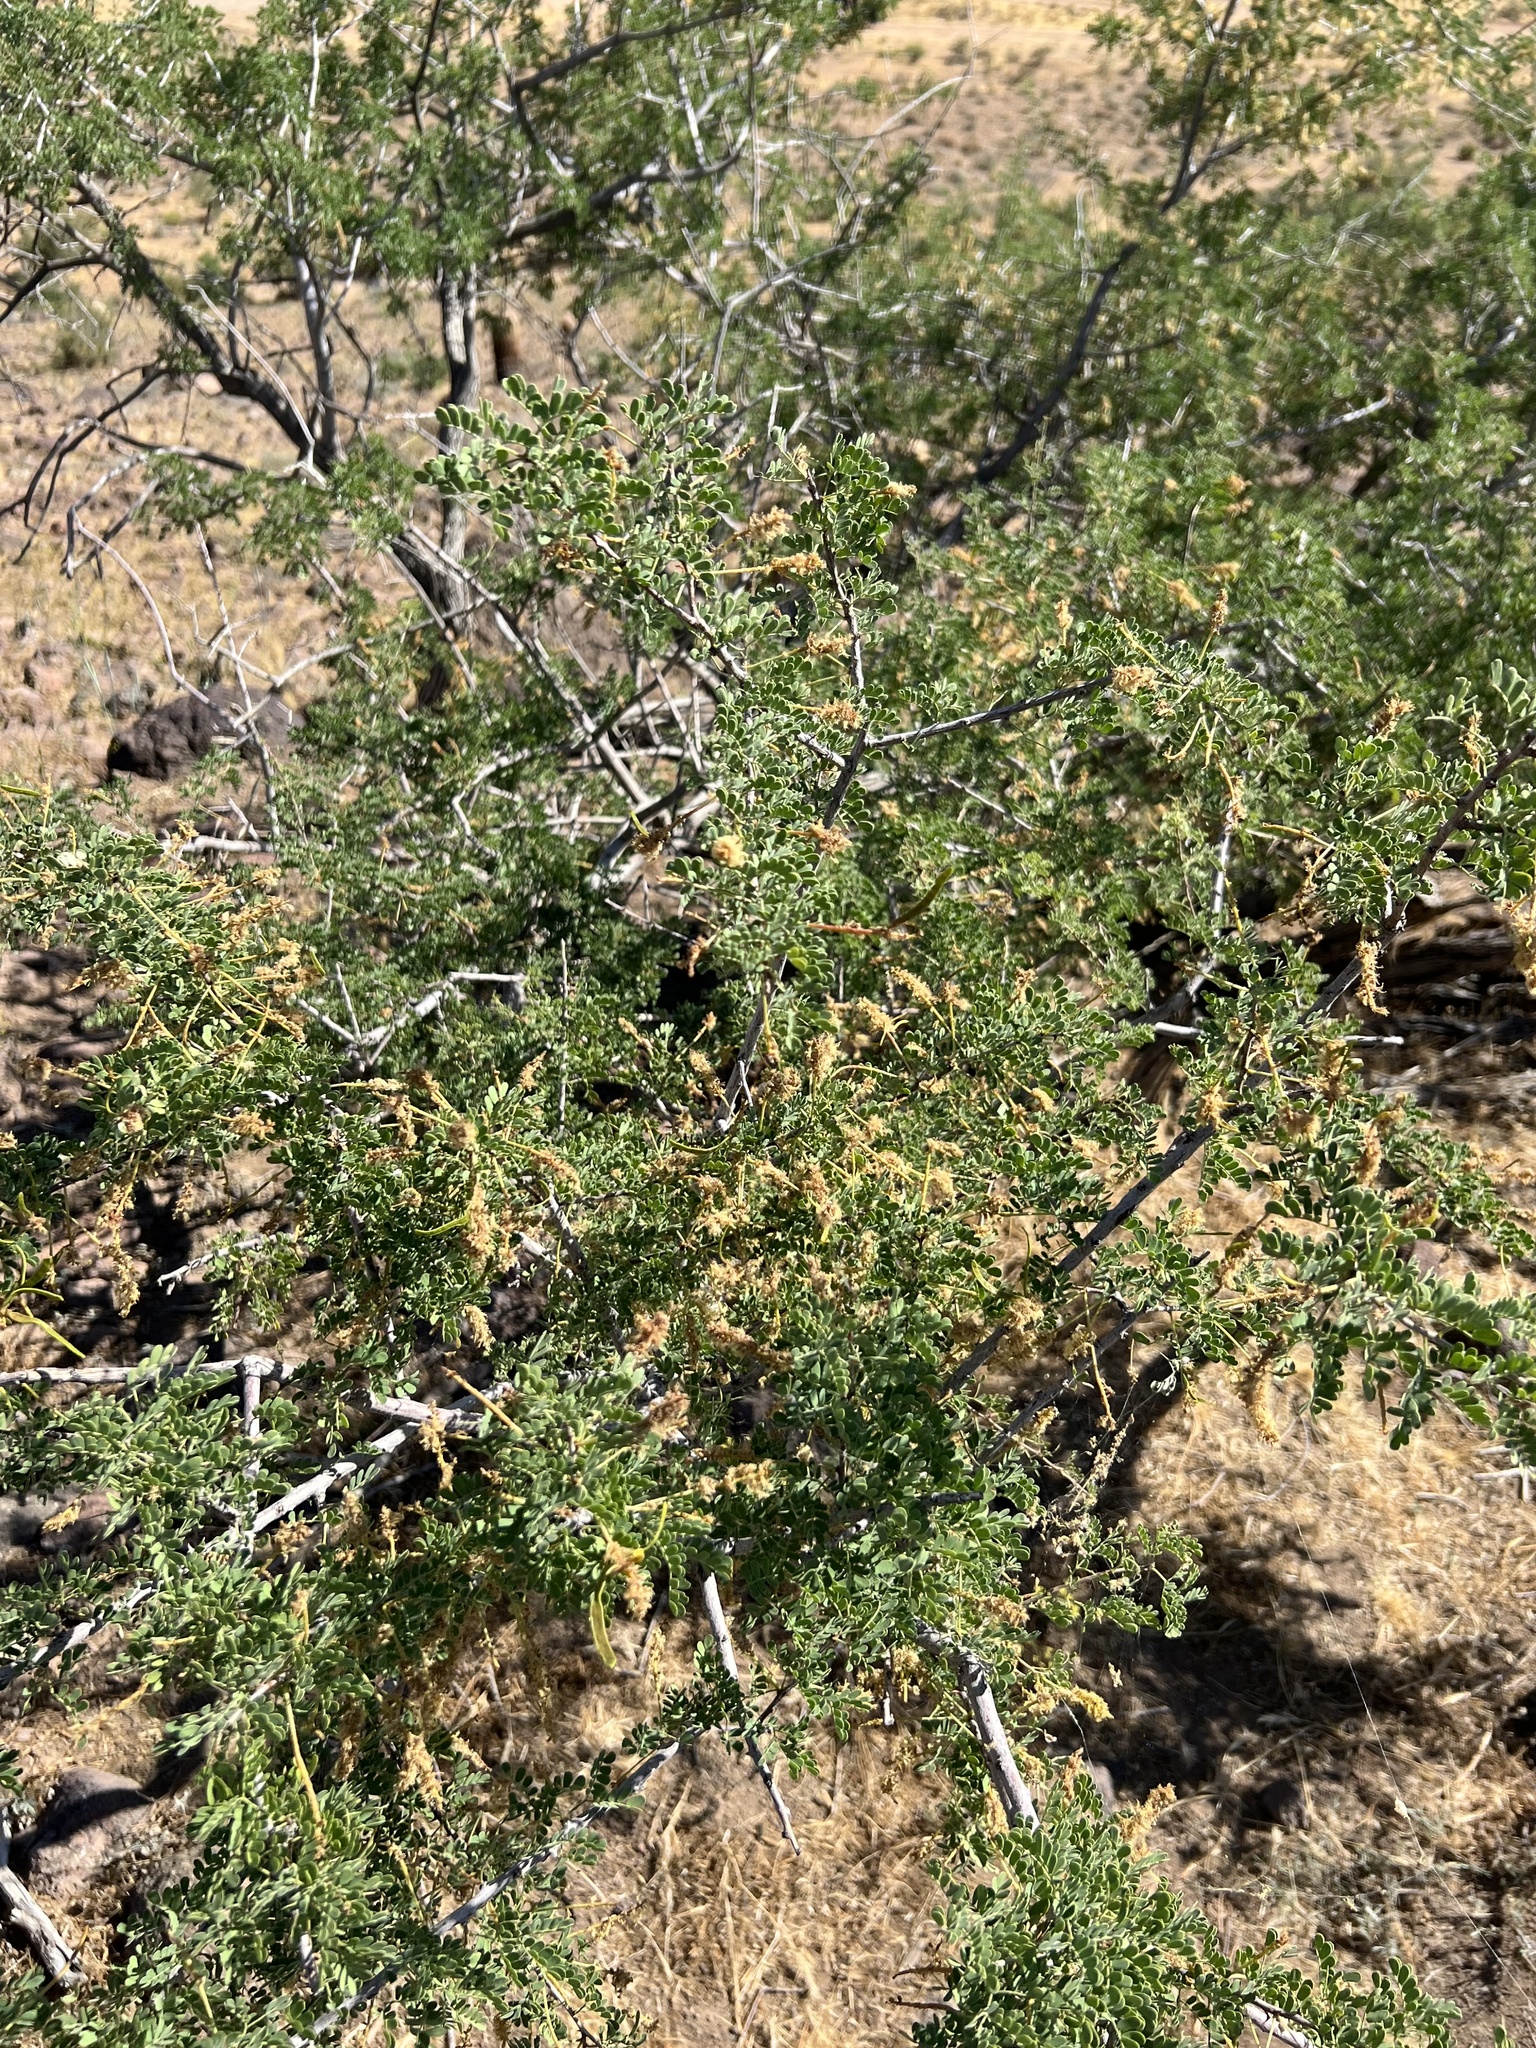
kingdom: Plantae
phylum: Tracheophyta
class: Magnoliopsida
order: Fabales
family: Fabaceae
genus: Senegalia
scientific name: Senegalia greggii
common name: Texas-mimosa
